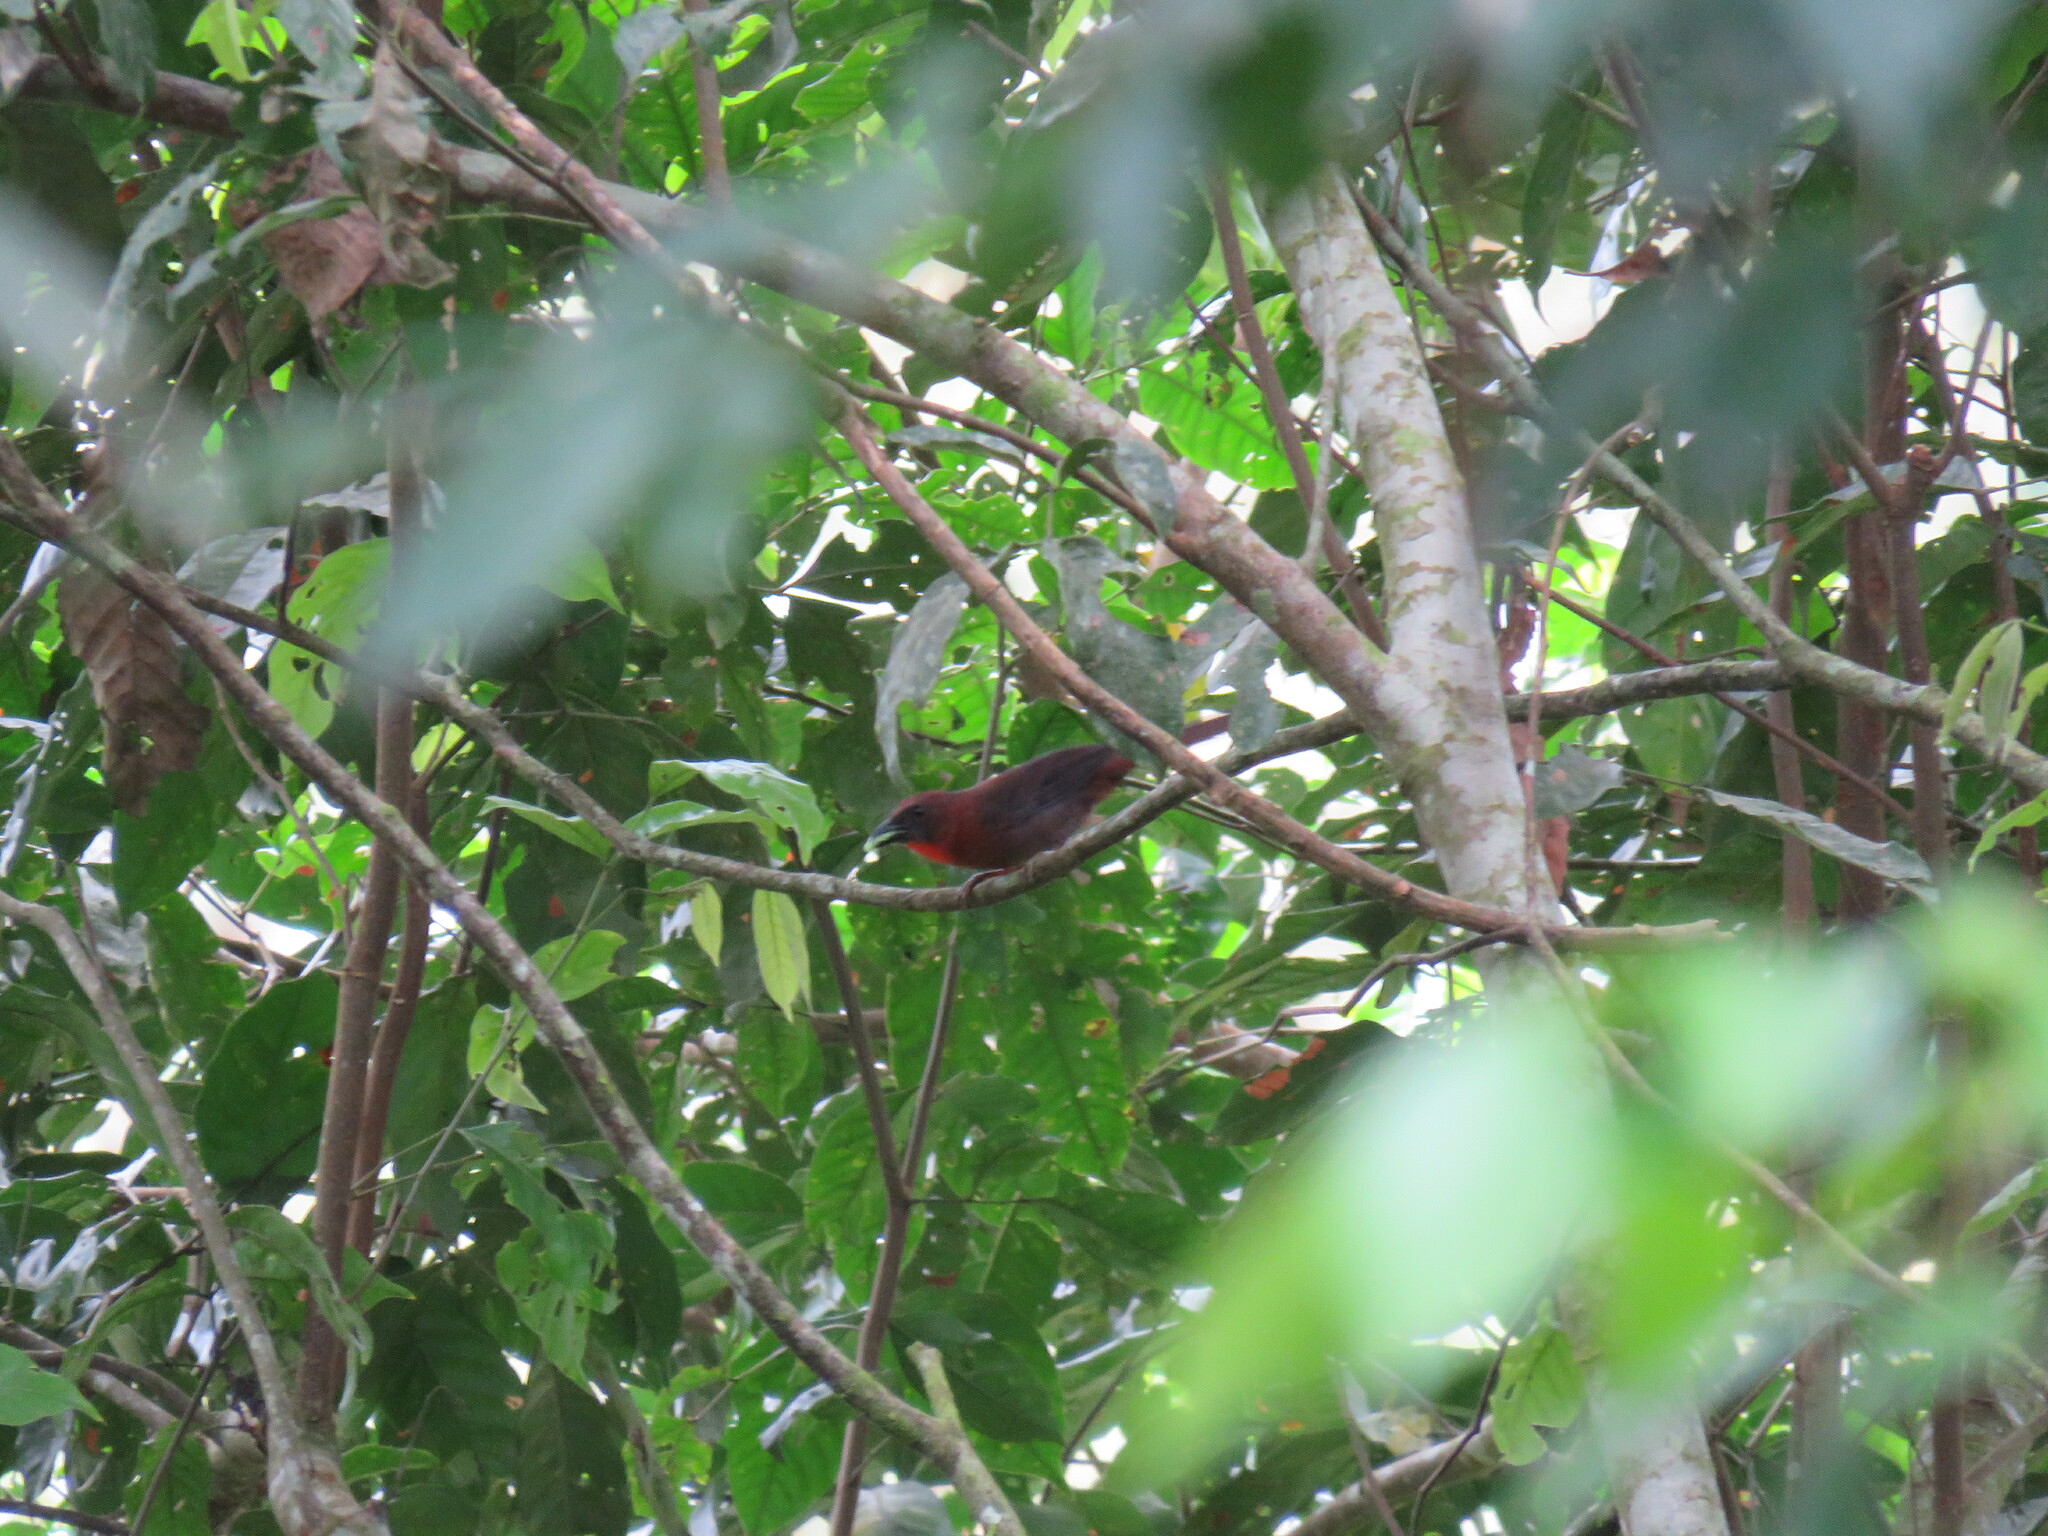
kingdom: Animalia
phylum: Chordata
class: Aves
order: Passeriformes
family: Cardinalidae
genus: Habia
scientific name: Habia fuscicauda
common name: Red-throated ant-tanager
